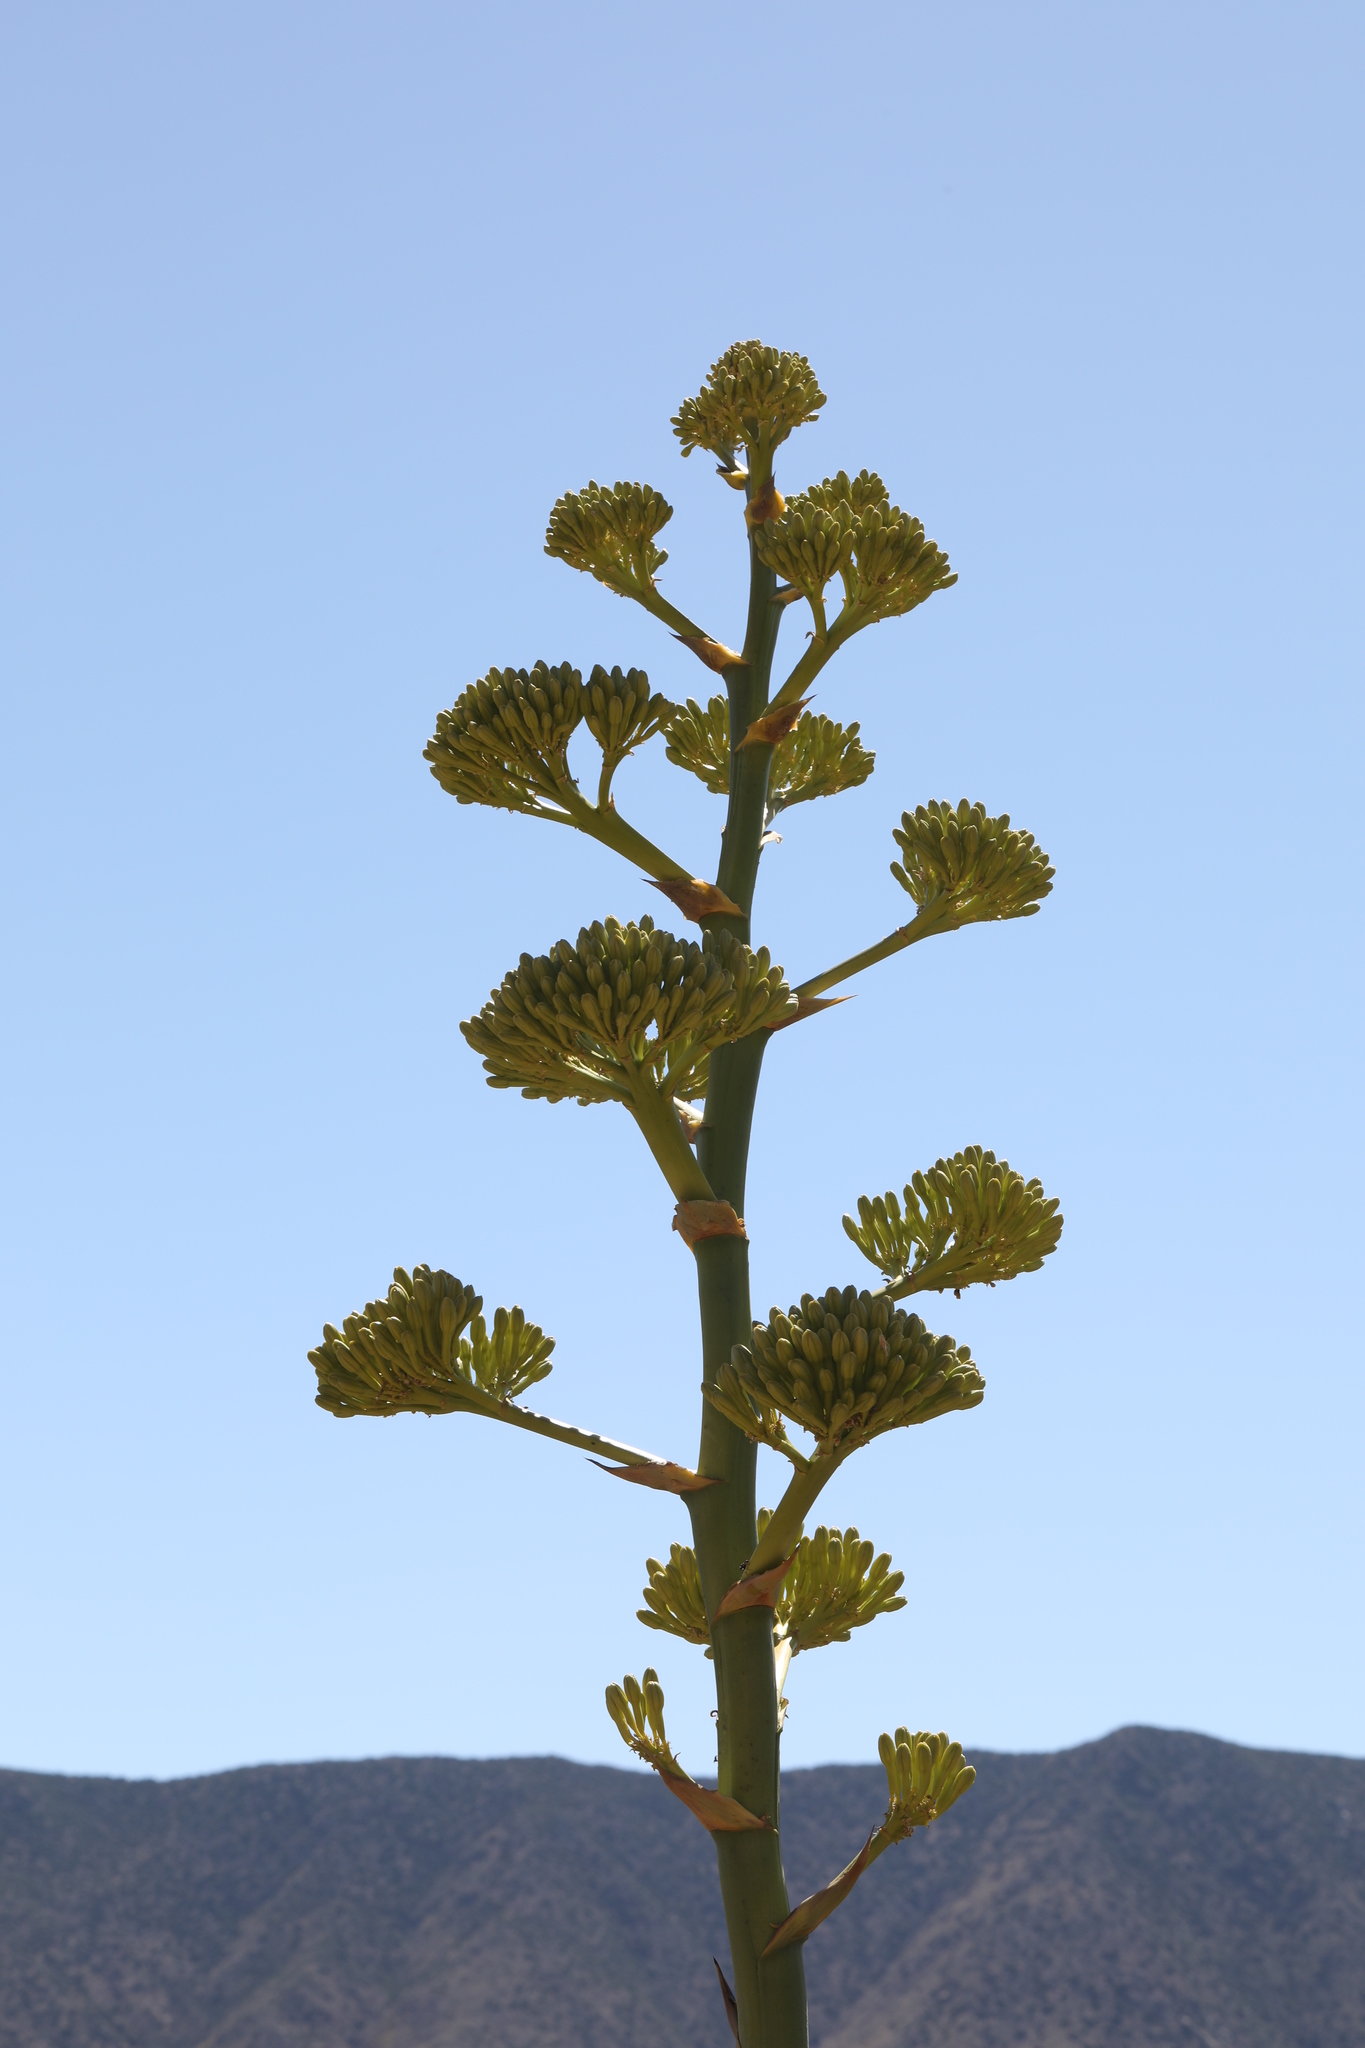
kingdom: Plantae
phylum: Tracheophyta
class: Liliopsida
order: Asparagales
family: Asparagaceae
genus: Agave
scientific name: Agave deserti
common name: Desert agave
